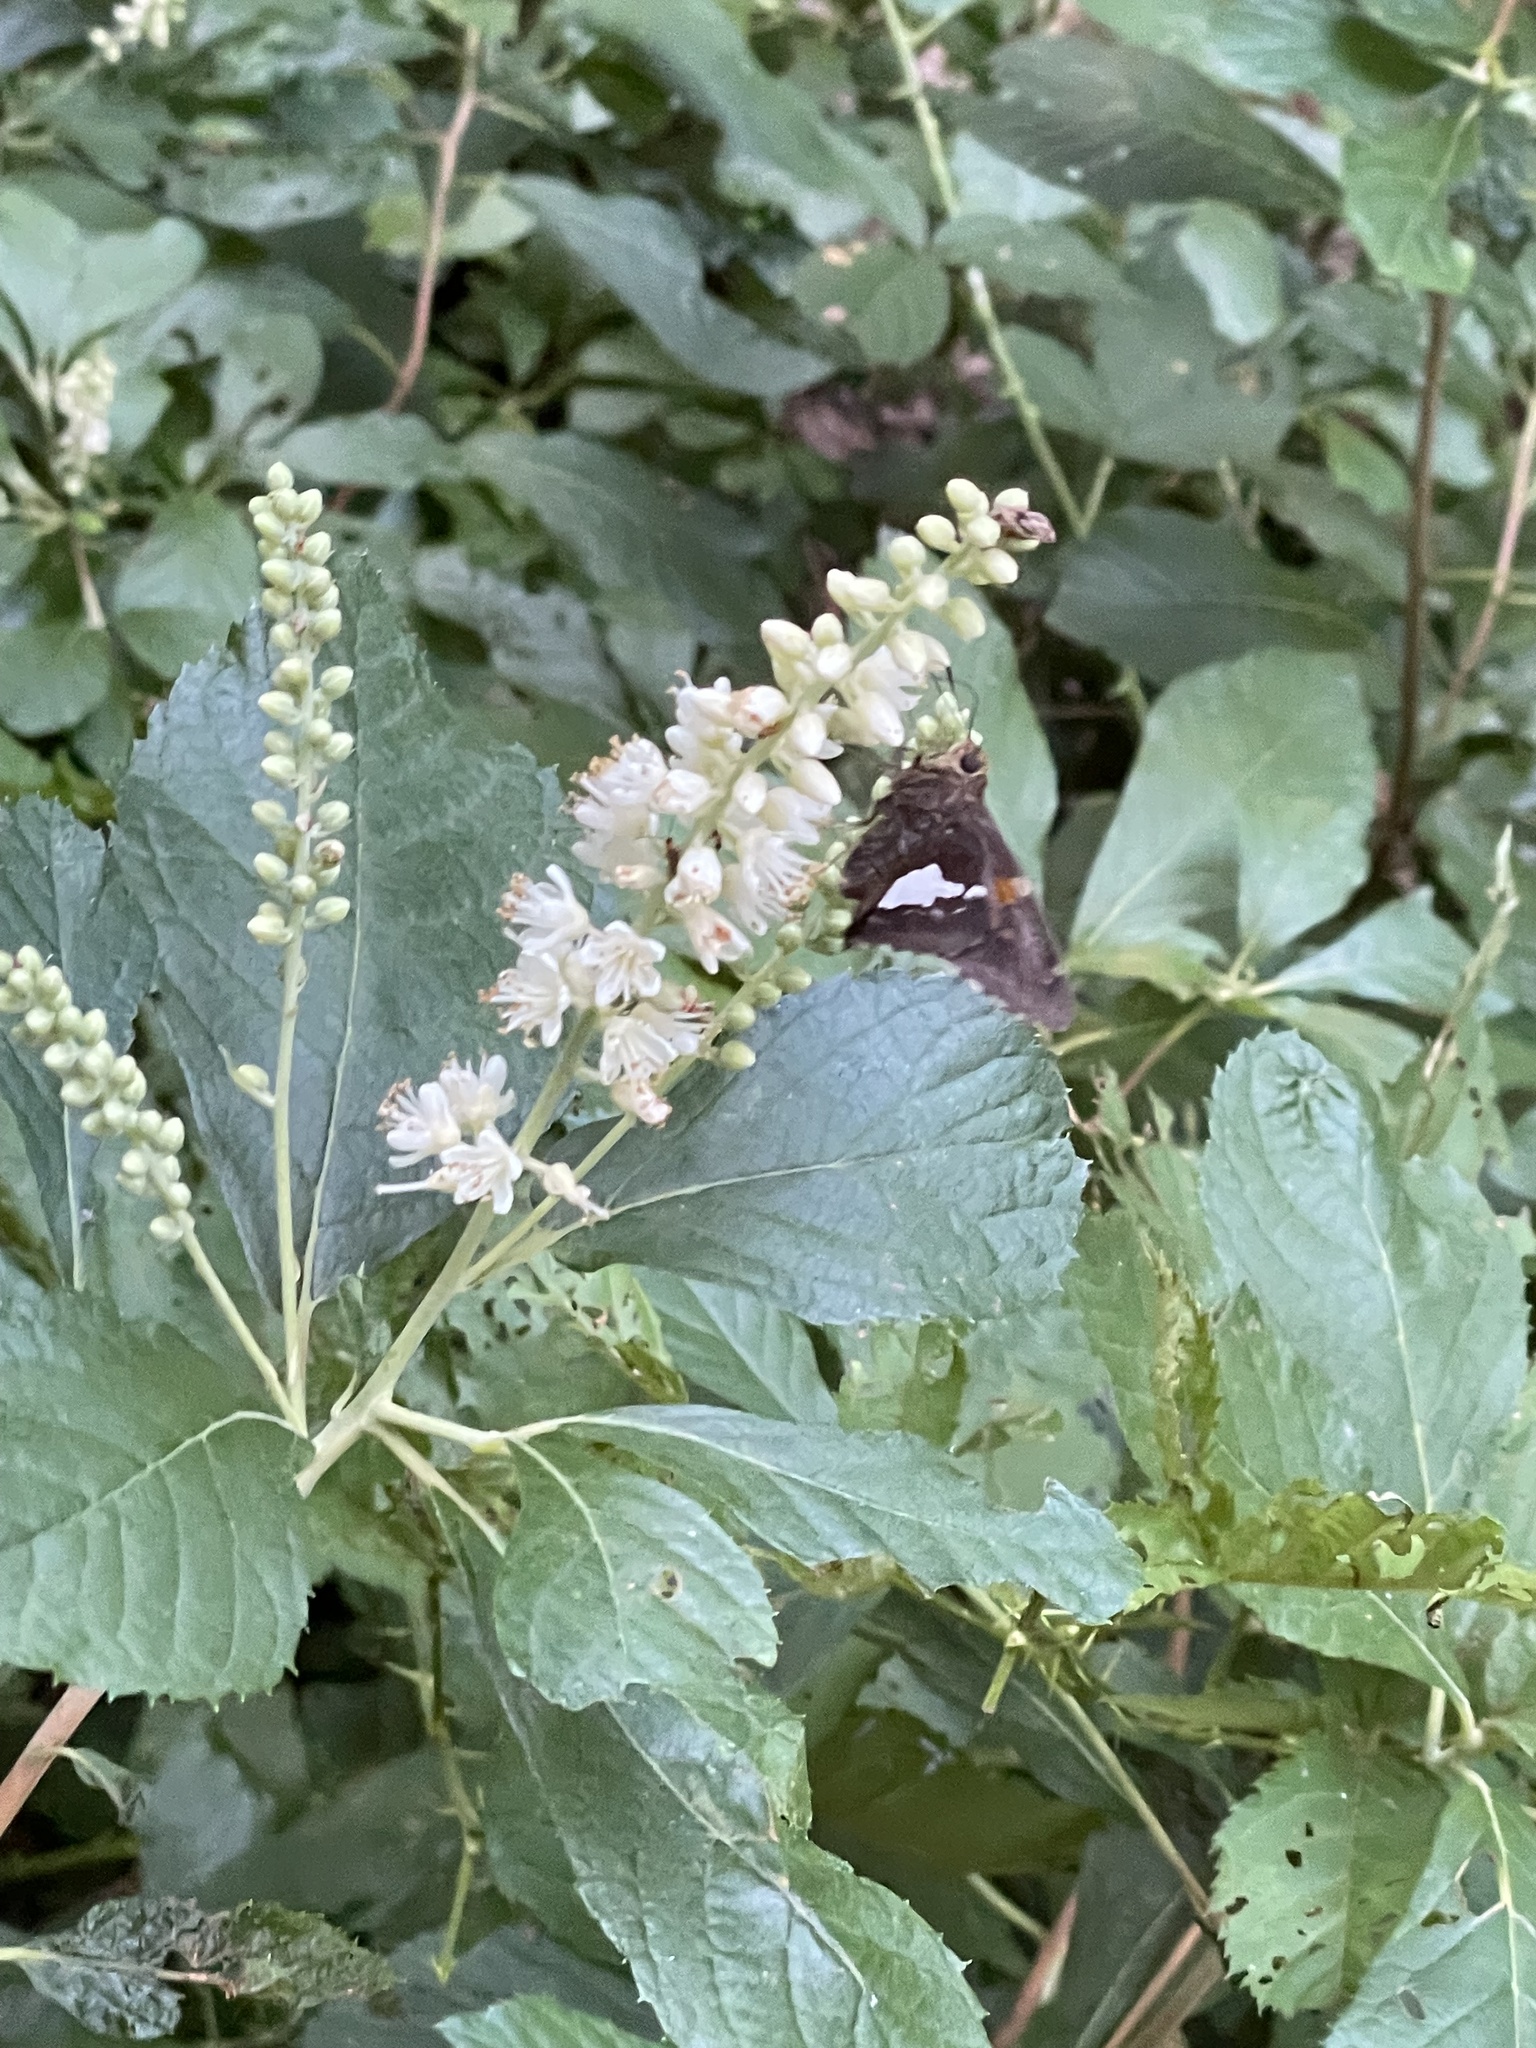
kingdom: Animalia
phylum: Arthropoda
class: Insecta
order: Lepidoptera
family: Hesperiidae
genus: Epargyreus
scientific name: Epargyreus clarus
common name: Silver-spotted skipper
